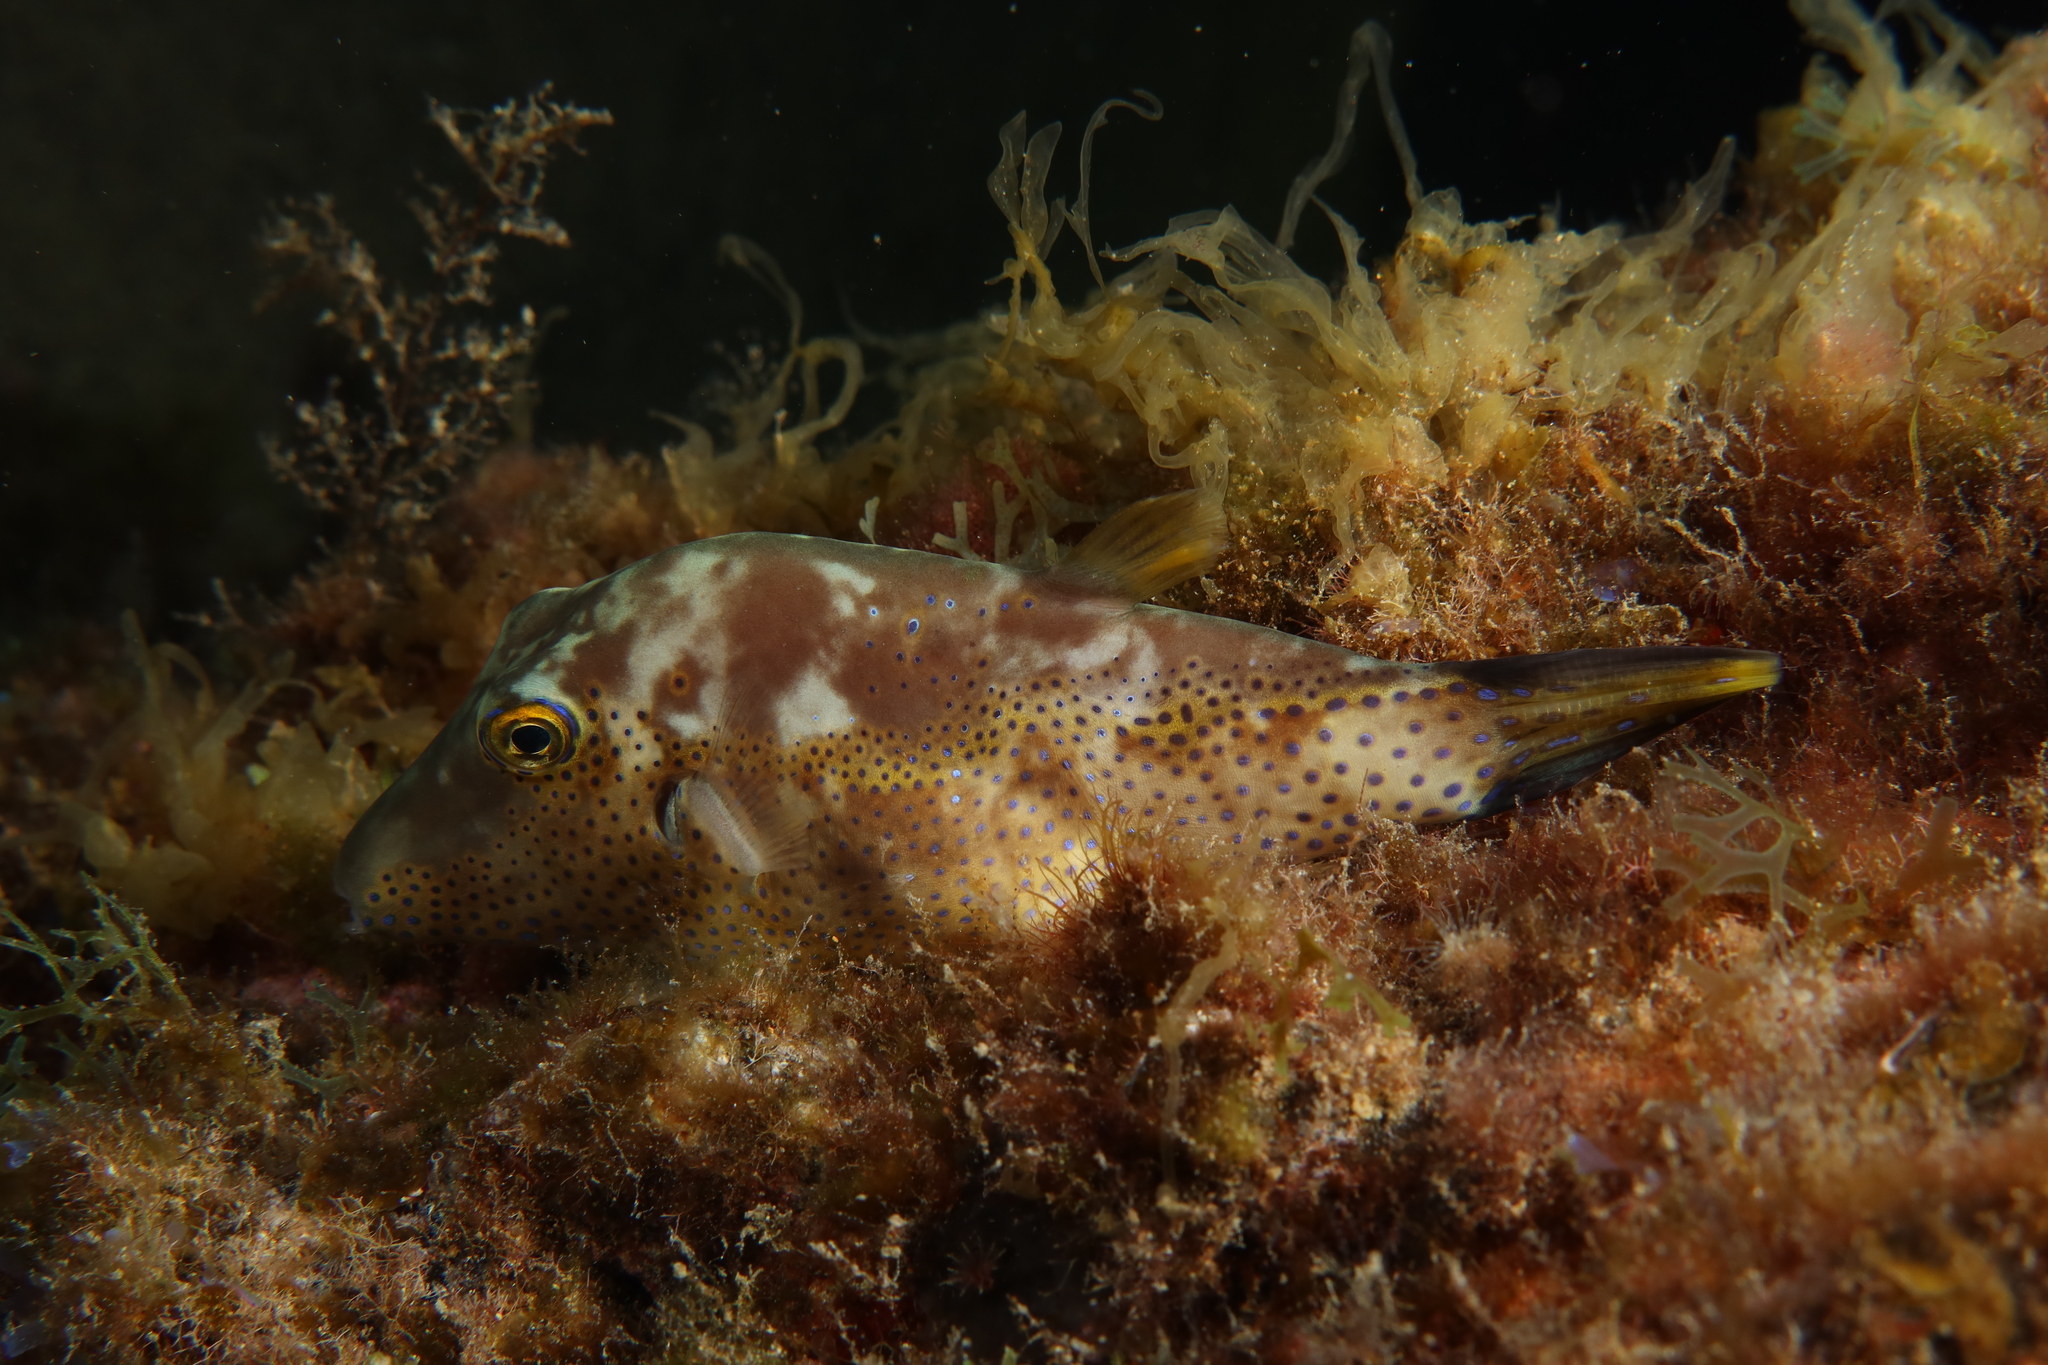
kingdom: Animalia
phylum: Chordata
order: Tetraodontiformes
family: Tetraodontidae
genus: Canthigaster
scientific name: Canthigaster capistrata
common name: Macaronesian sharpnose-puffer
